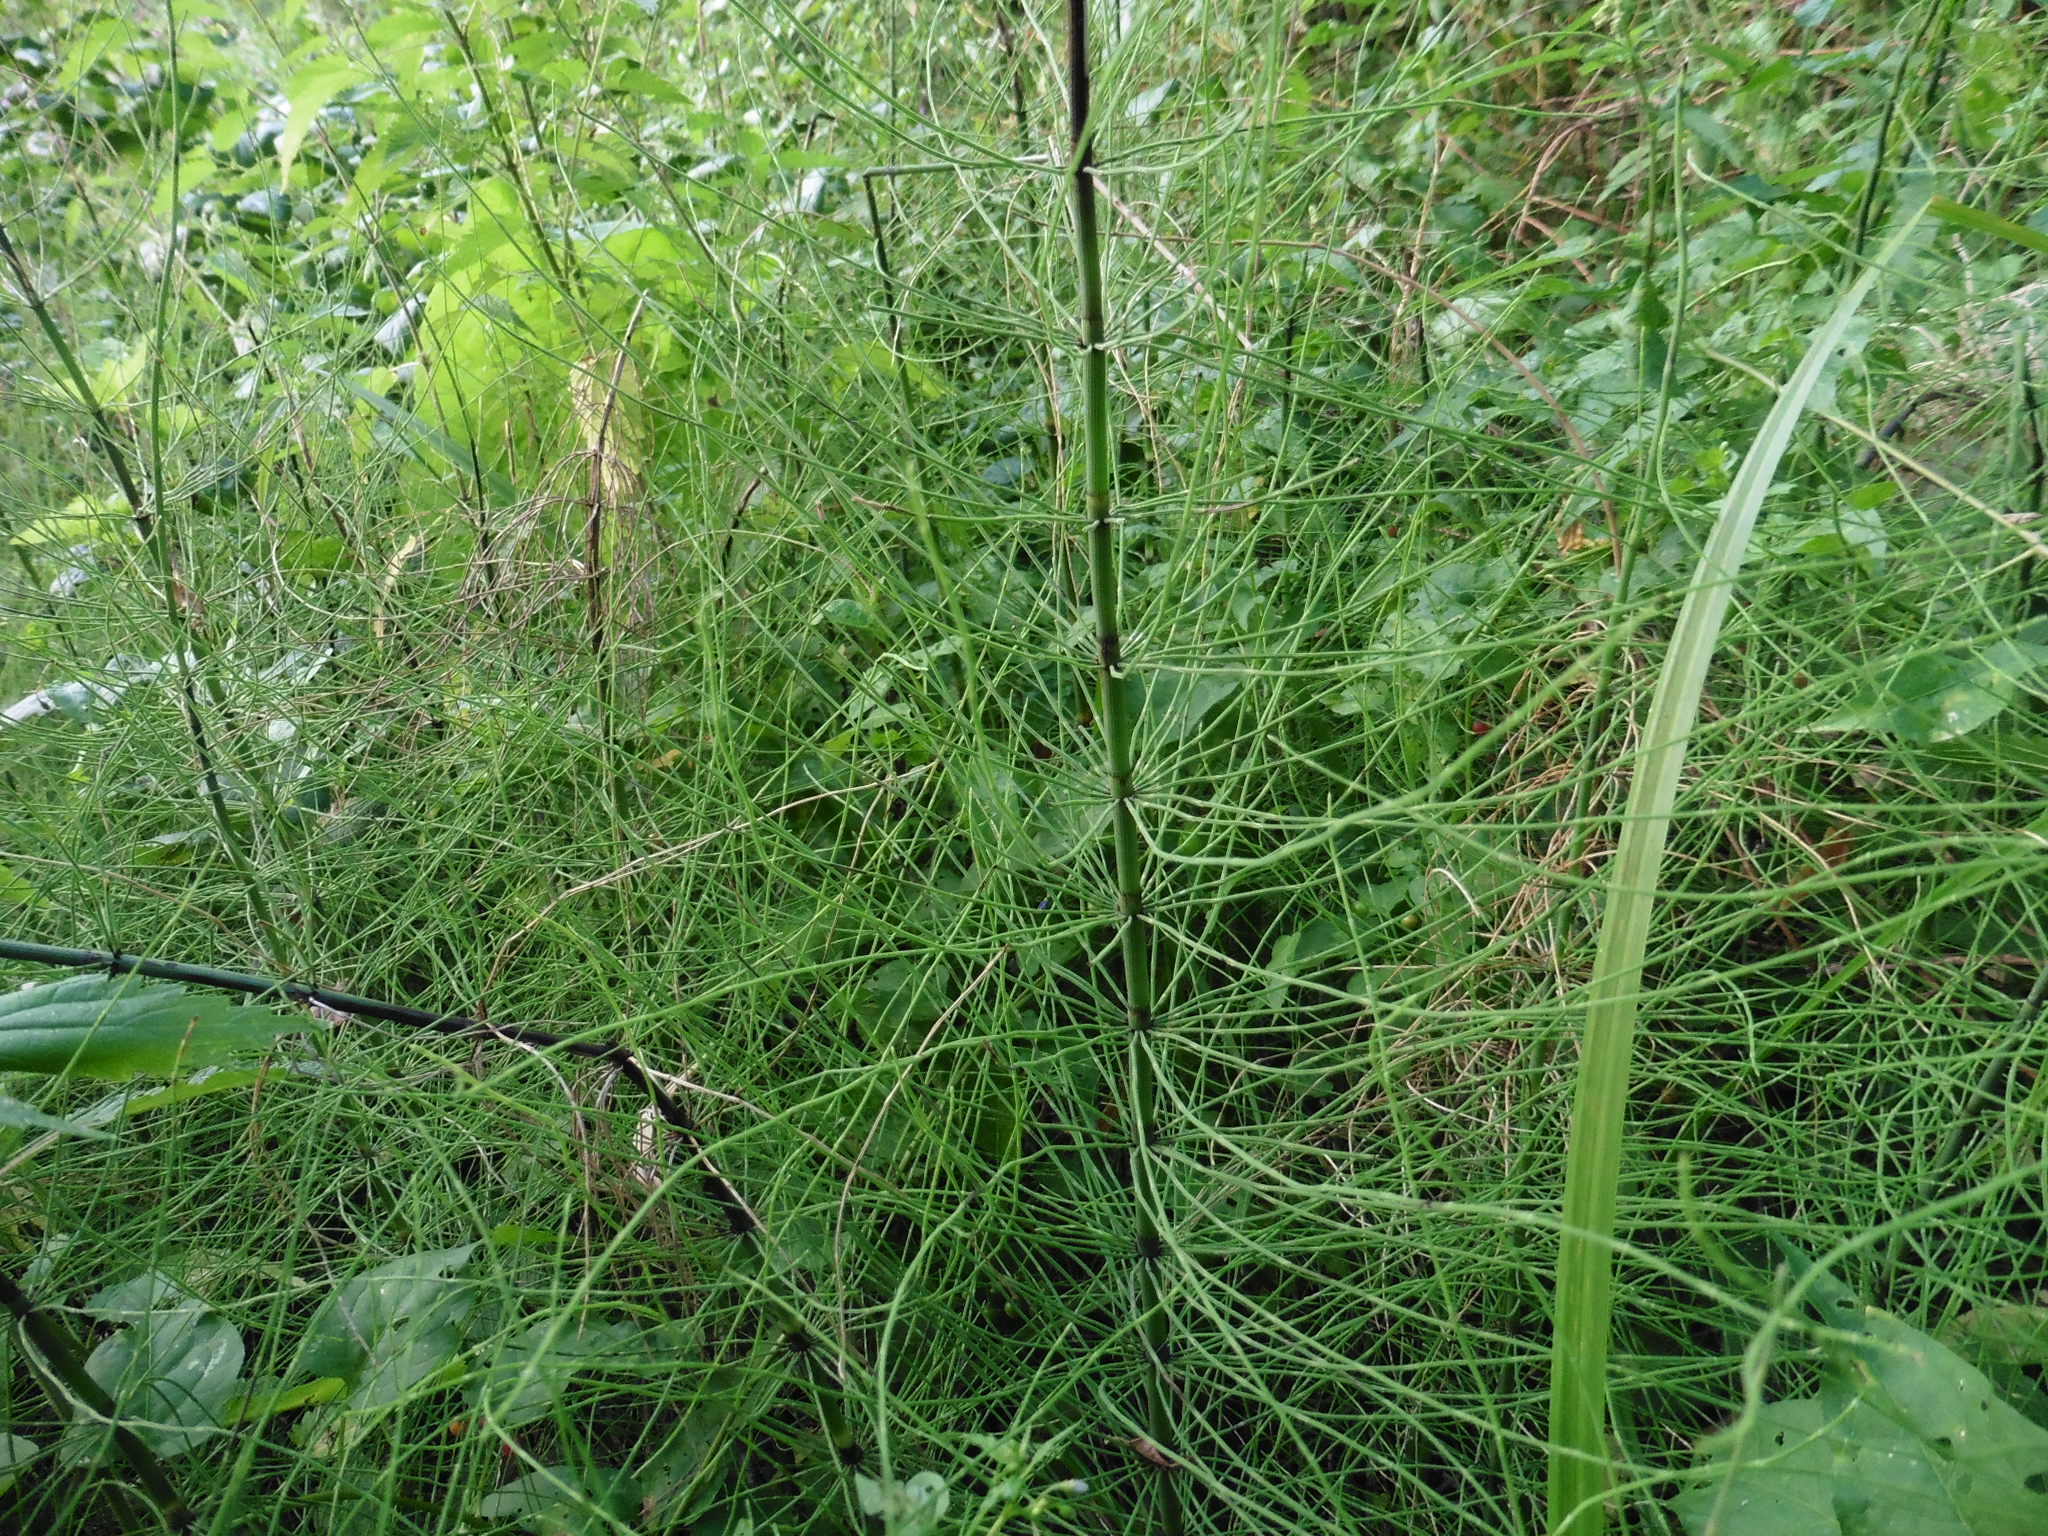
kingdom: Plantae
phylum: Tracheophyta
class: Polypodiopsida
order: Equisetales
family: Equisetaceae
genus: Equisetum
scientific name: Equisetum fluviatile
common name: Water horsetail
